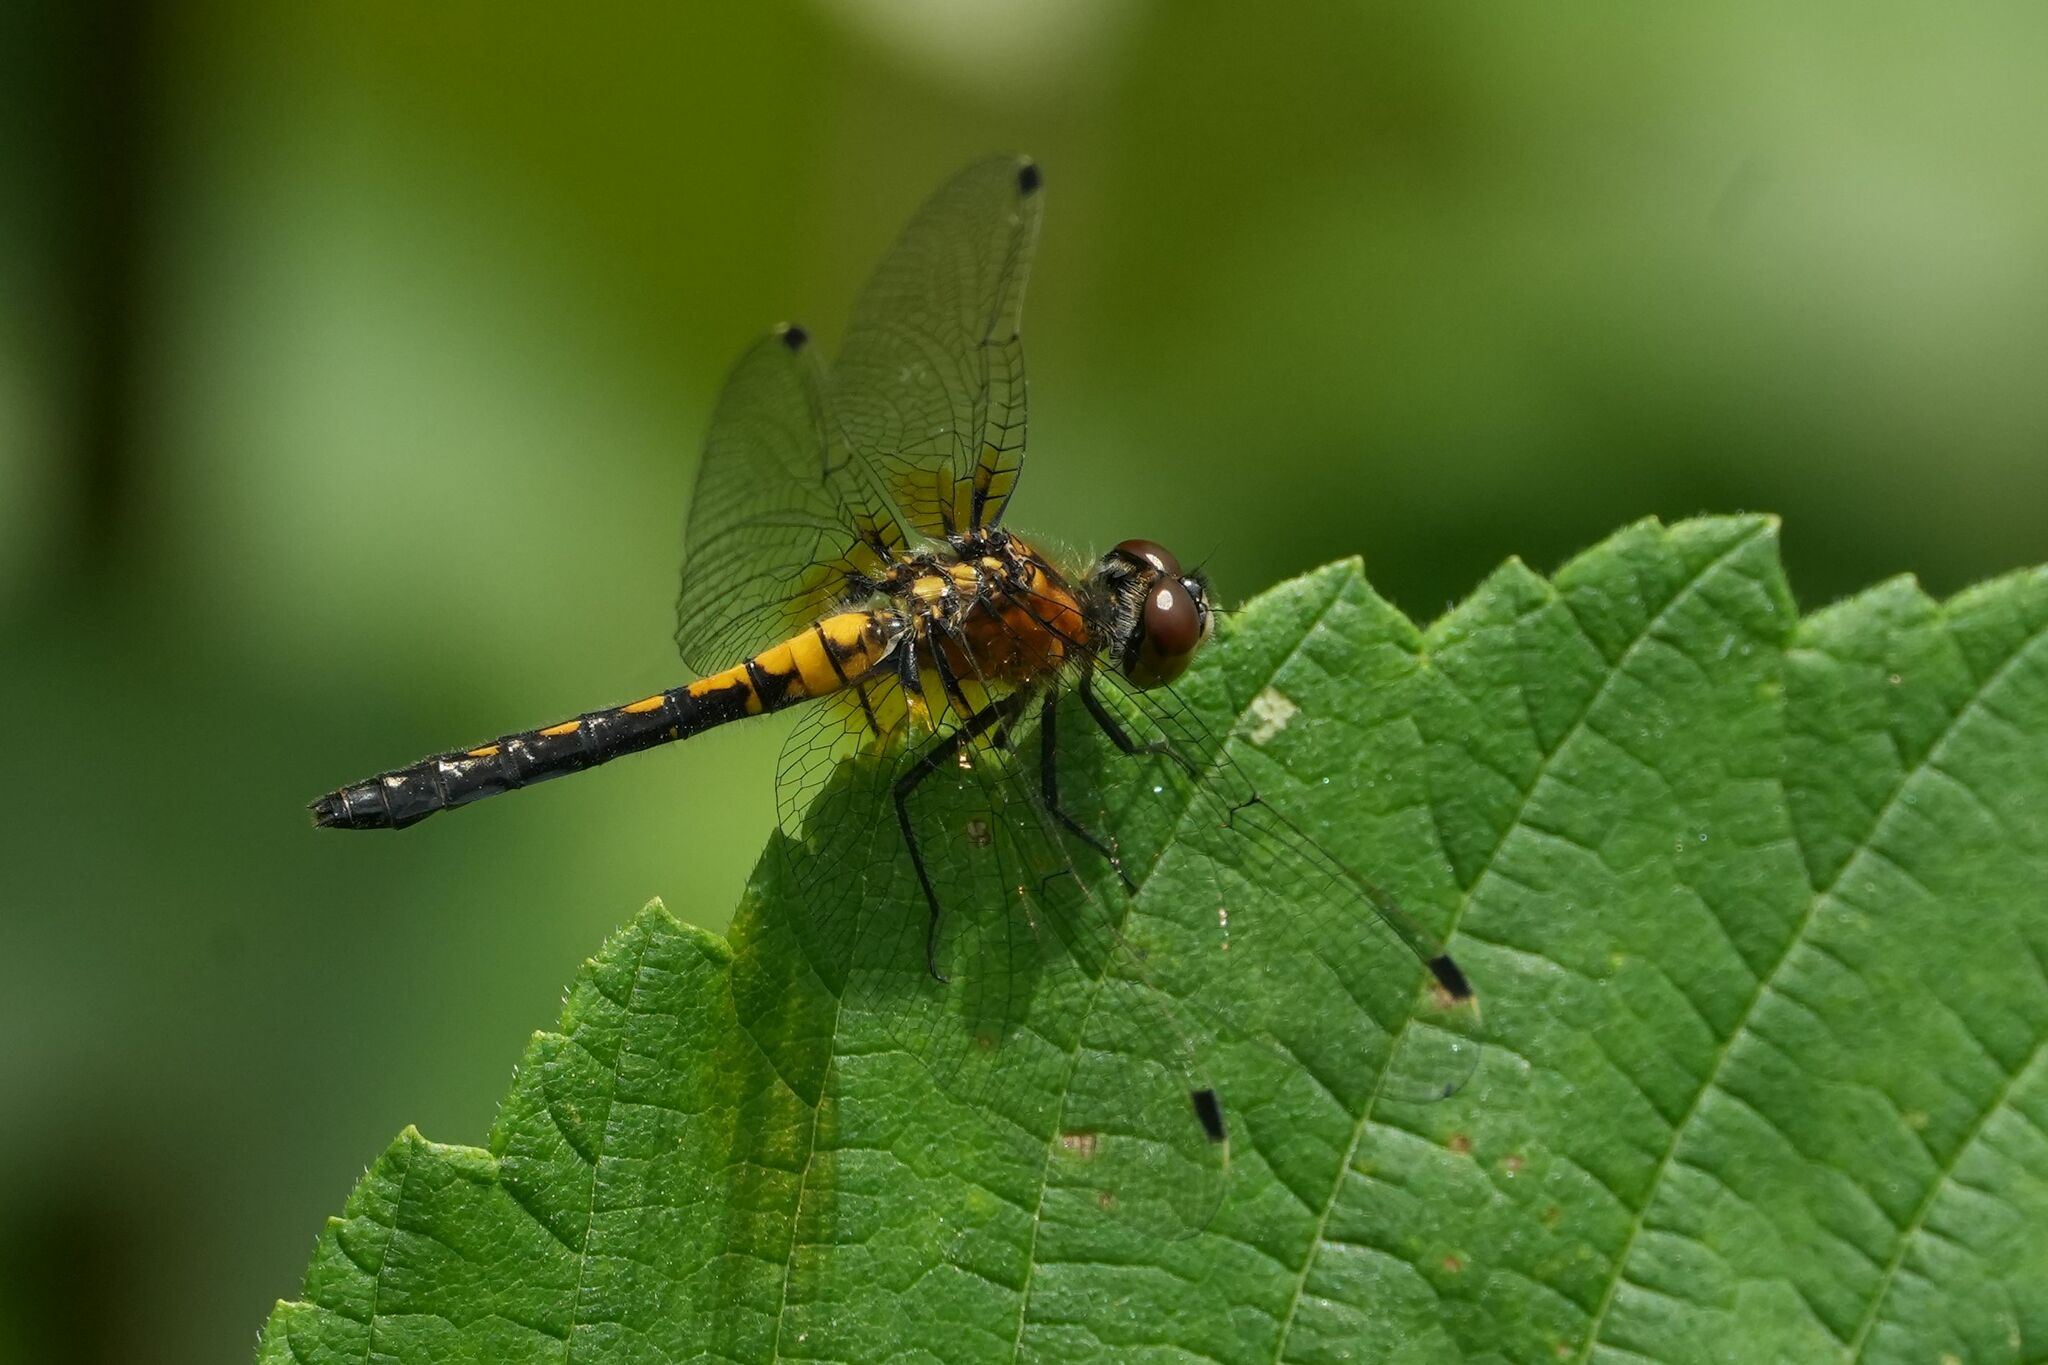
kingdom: Animalia
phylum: Arthropoda
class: Insecta
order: Odonata
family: Libellulidae
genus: Leucorrhinia
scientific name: Leucorrhinia frigida
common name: Frosted whiteface
